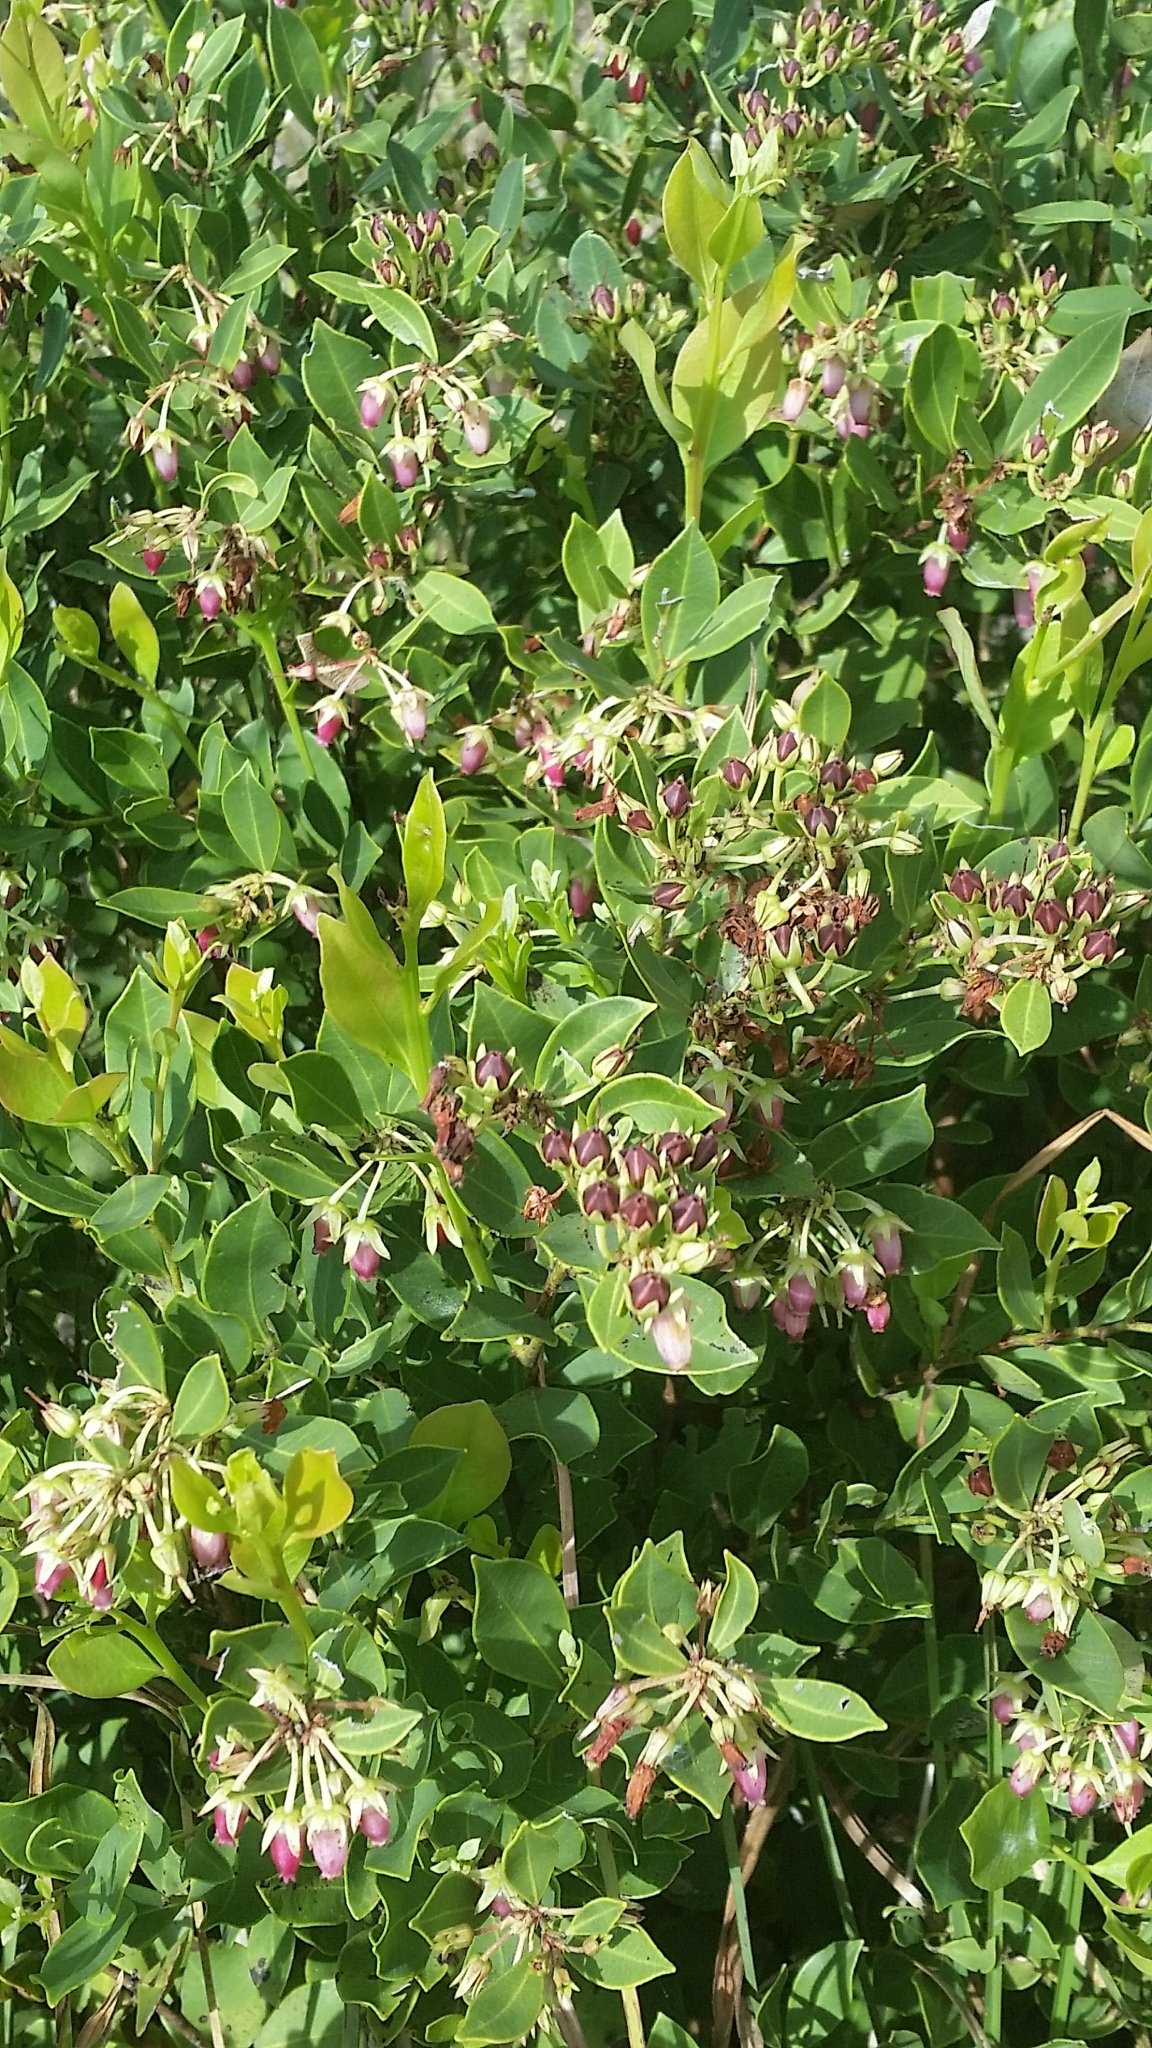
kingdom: Plantae
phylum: Tracheophyta
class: Magnoliopsida
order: Ericales
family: Ericaceae
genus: Lyonia
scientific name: Lyonia lucida
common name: Fetterbush
